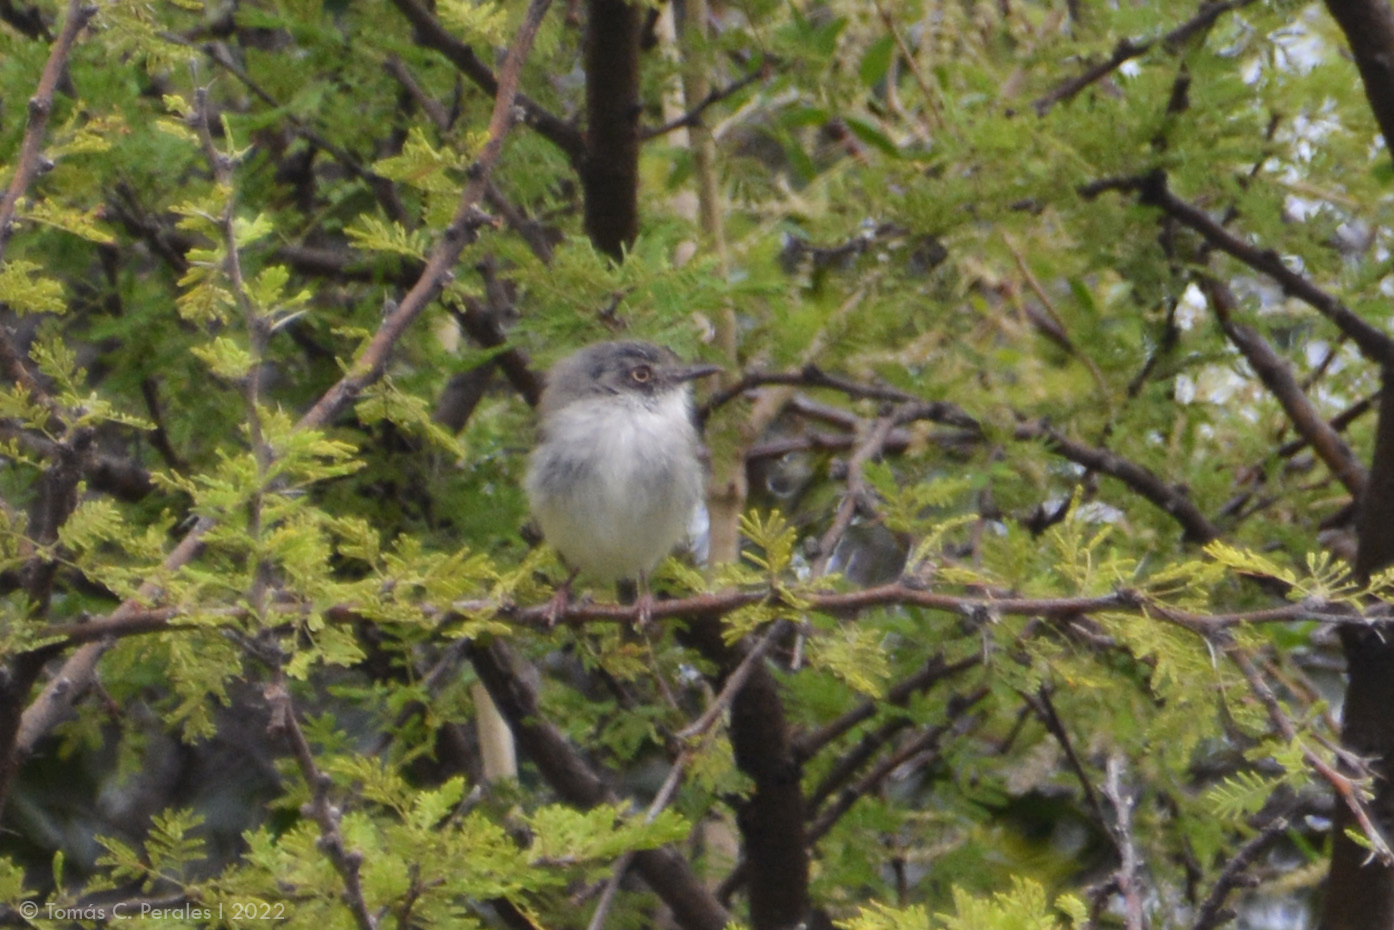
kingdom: Animalia
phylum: Chordata
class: Aves
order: Passeriformes
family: Tyrannidae
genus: Hemitriccus
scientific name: Hemitriccus margaritaceiventer
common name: Pearly-vented tody-tyrant
